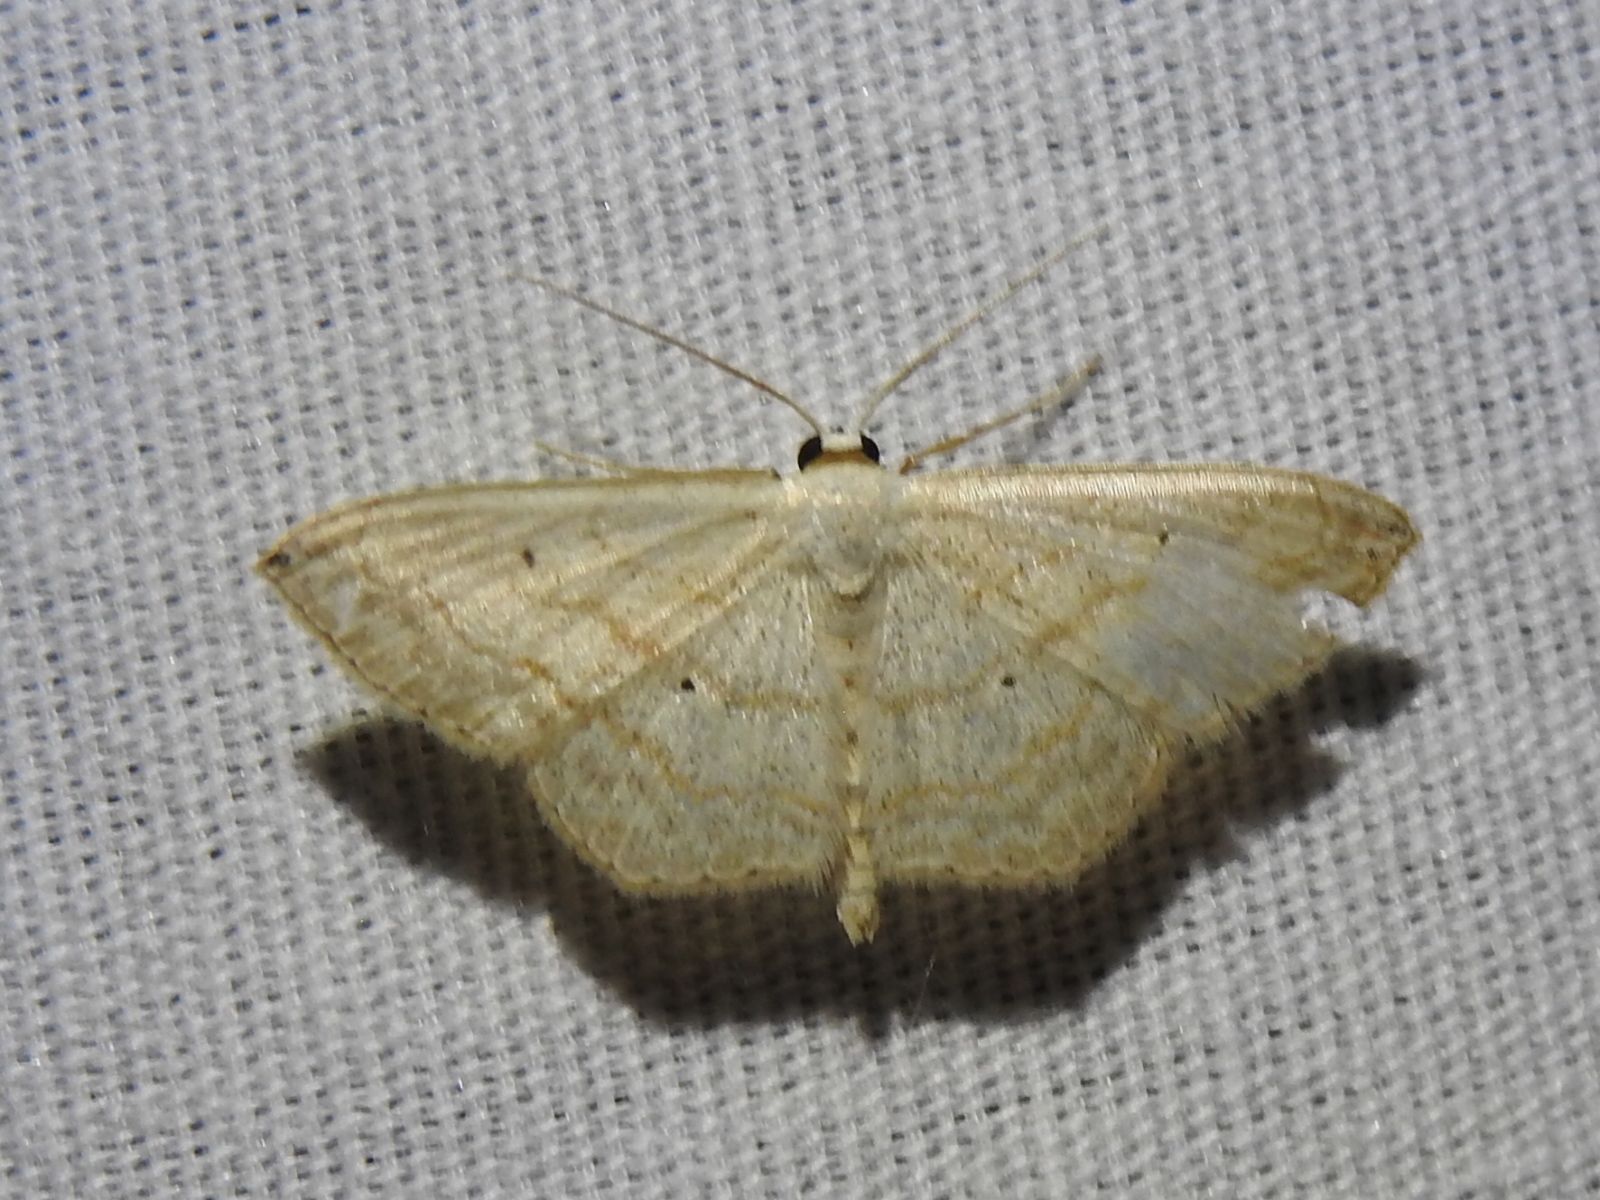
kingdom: Animalia
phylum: Arthropoda
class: Insecta
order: Lepidoptera
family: Geometridae
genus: Scopula
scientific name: Scopula umbilicata
